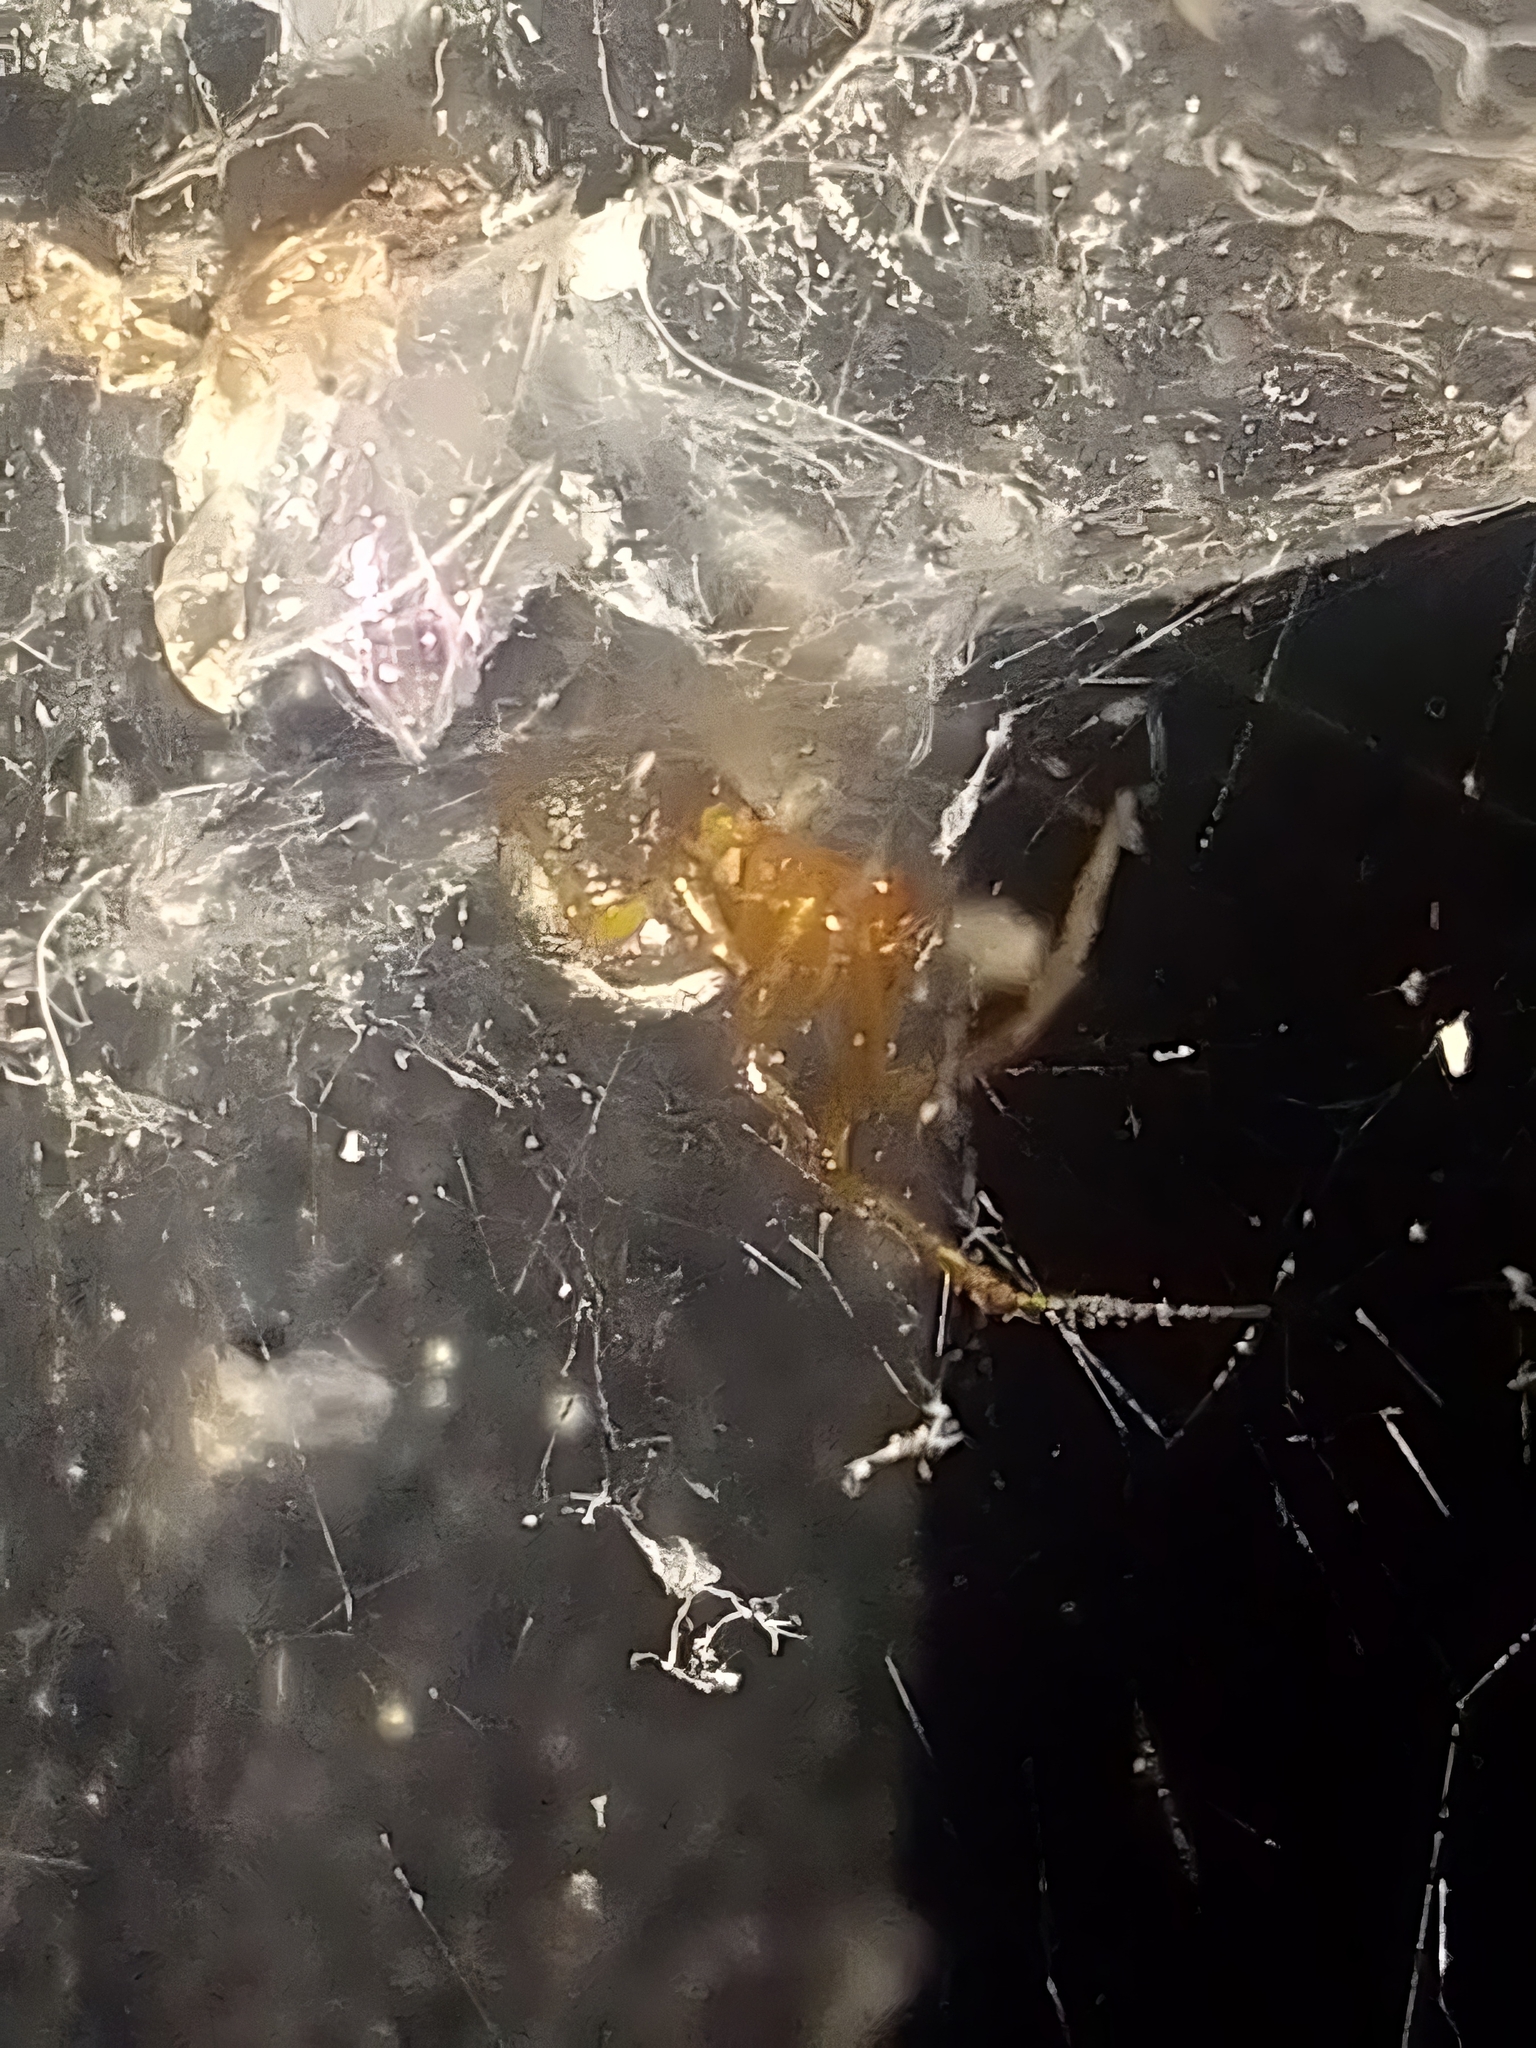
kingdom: Animalia
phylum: Arthropoda
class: Arachnida
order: Araneae
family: Theridiidae
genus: Nesticodes
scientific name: Nesticodes rufipes
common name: Cobweb spiders
